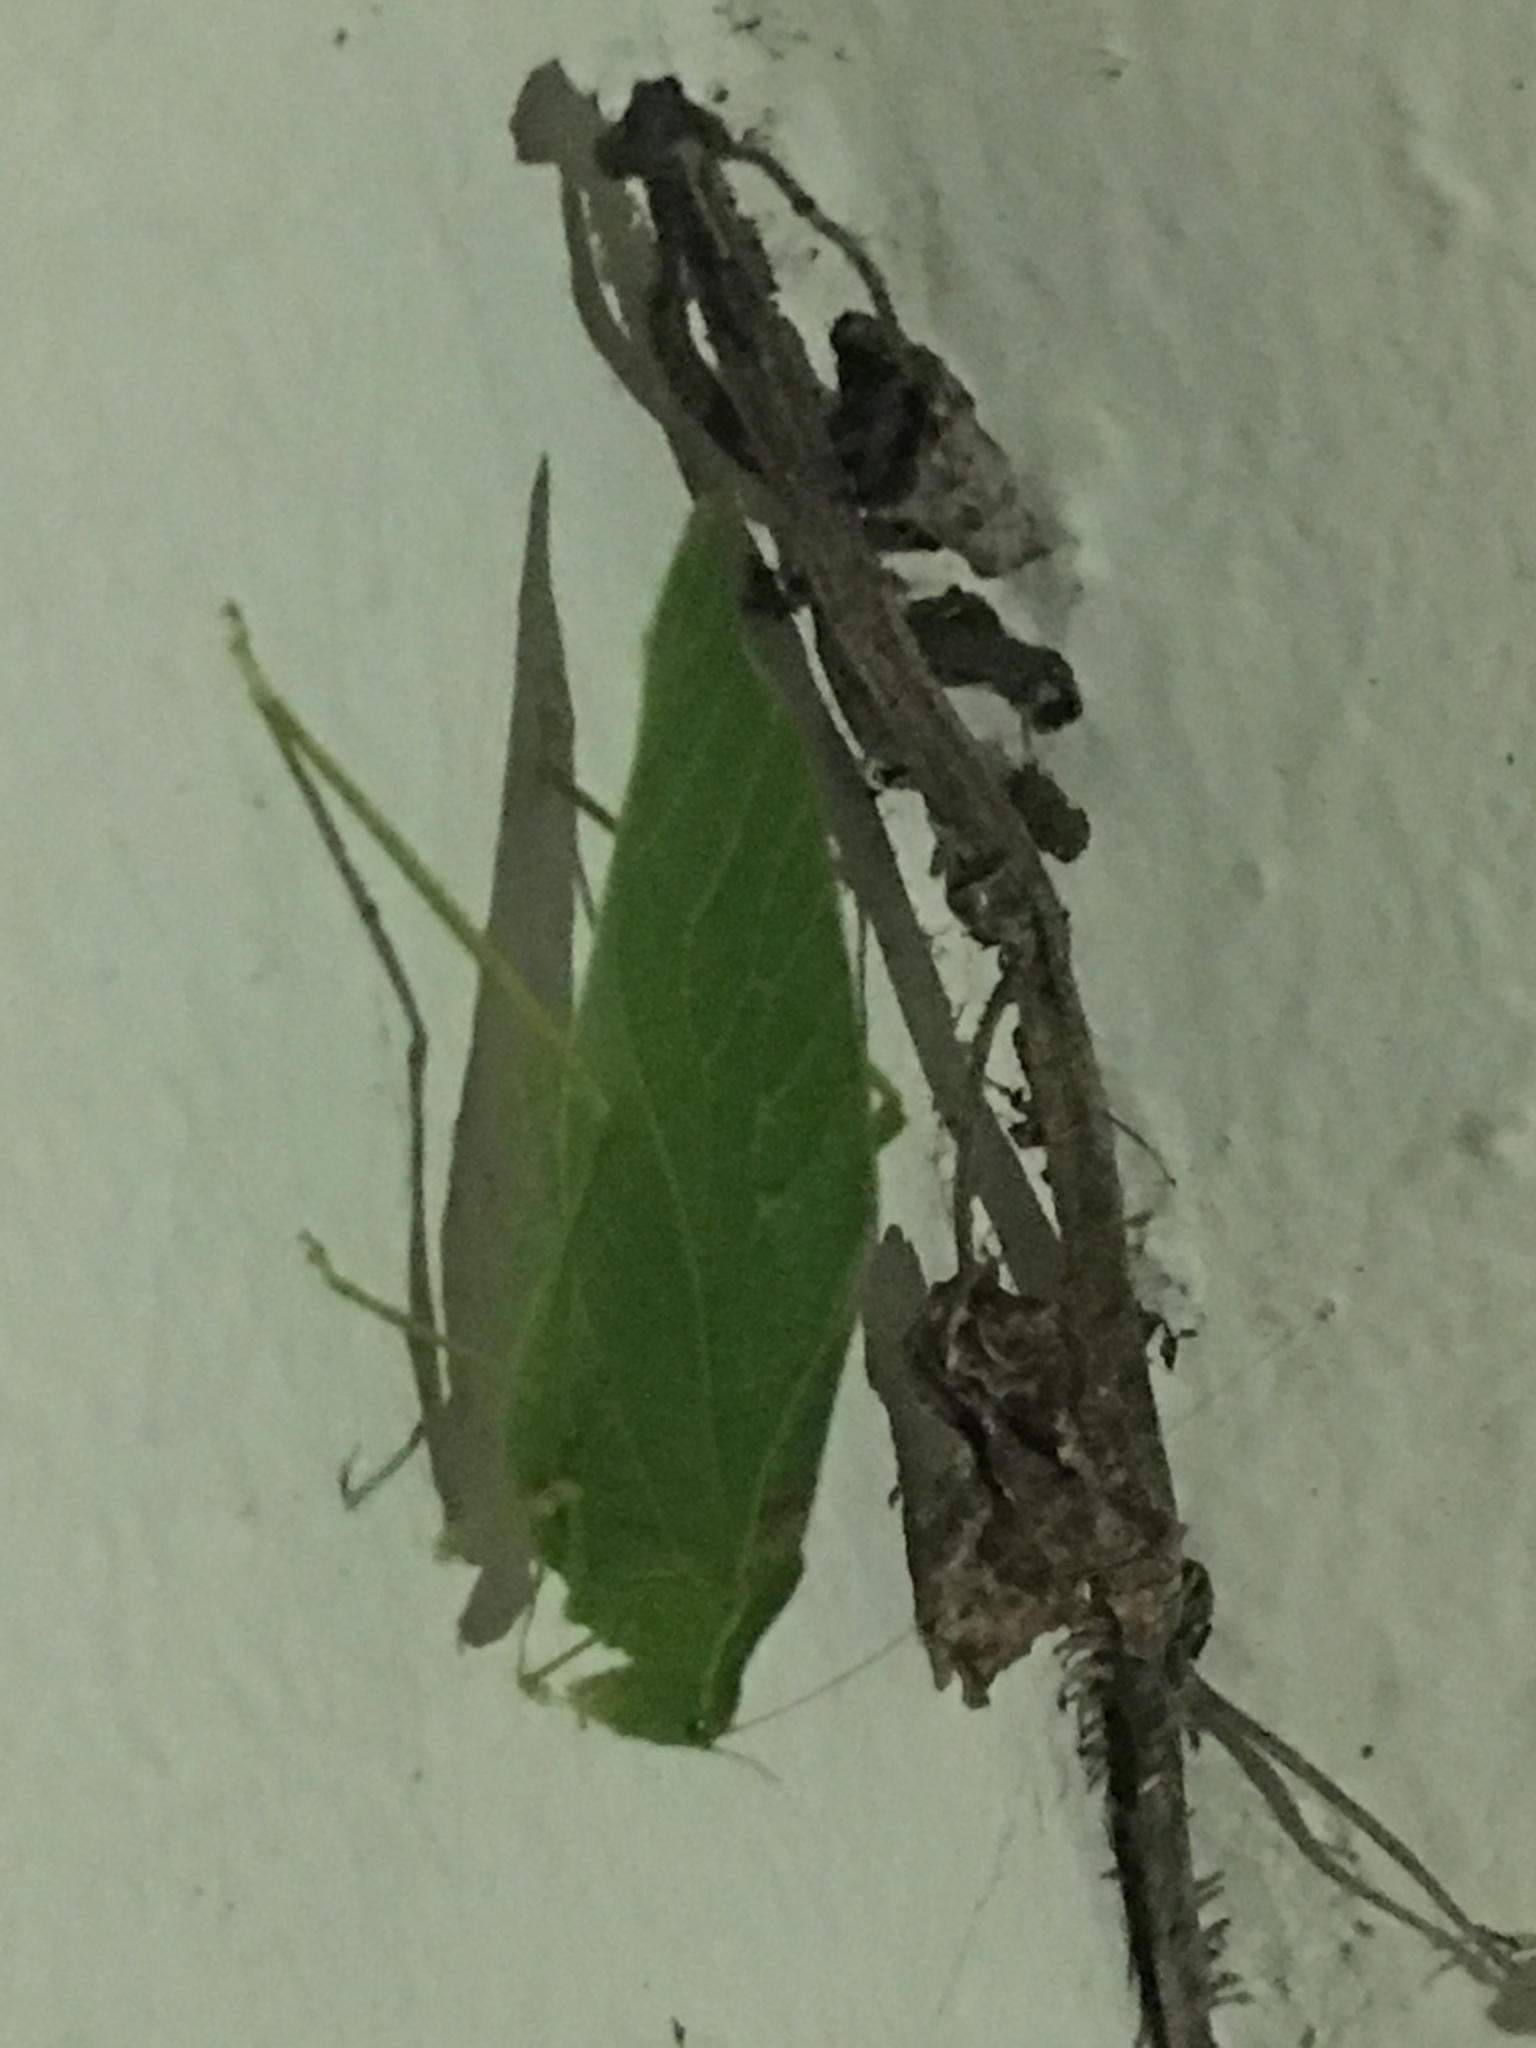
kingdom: Animalia
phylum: Arthropoda
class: Insecta
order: Orthoptera
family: Tettigoniidae
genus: Microcentrum
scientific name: Microcentrum retinerve
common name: Angular-winged katydid
